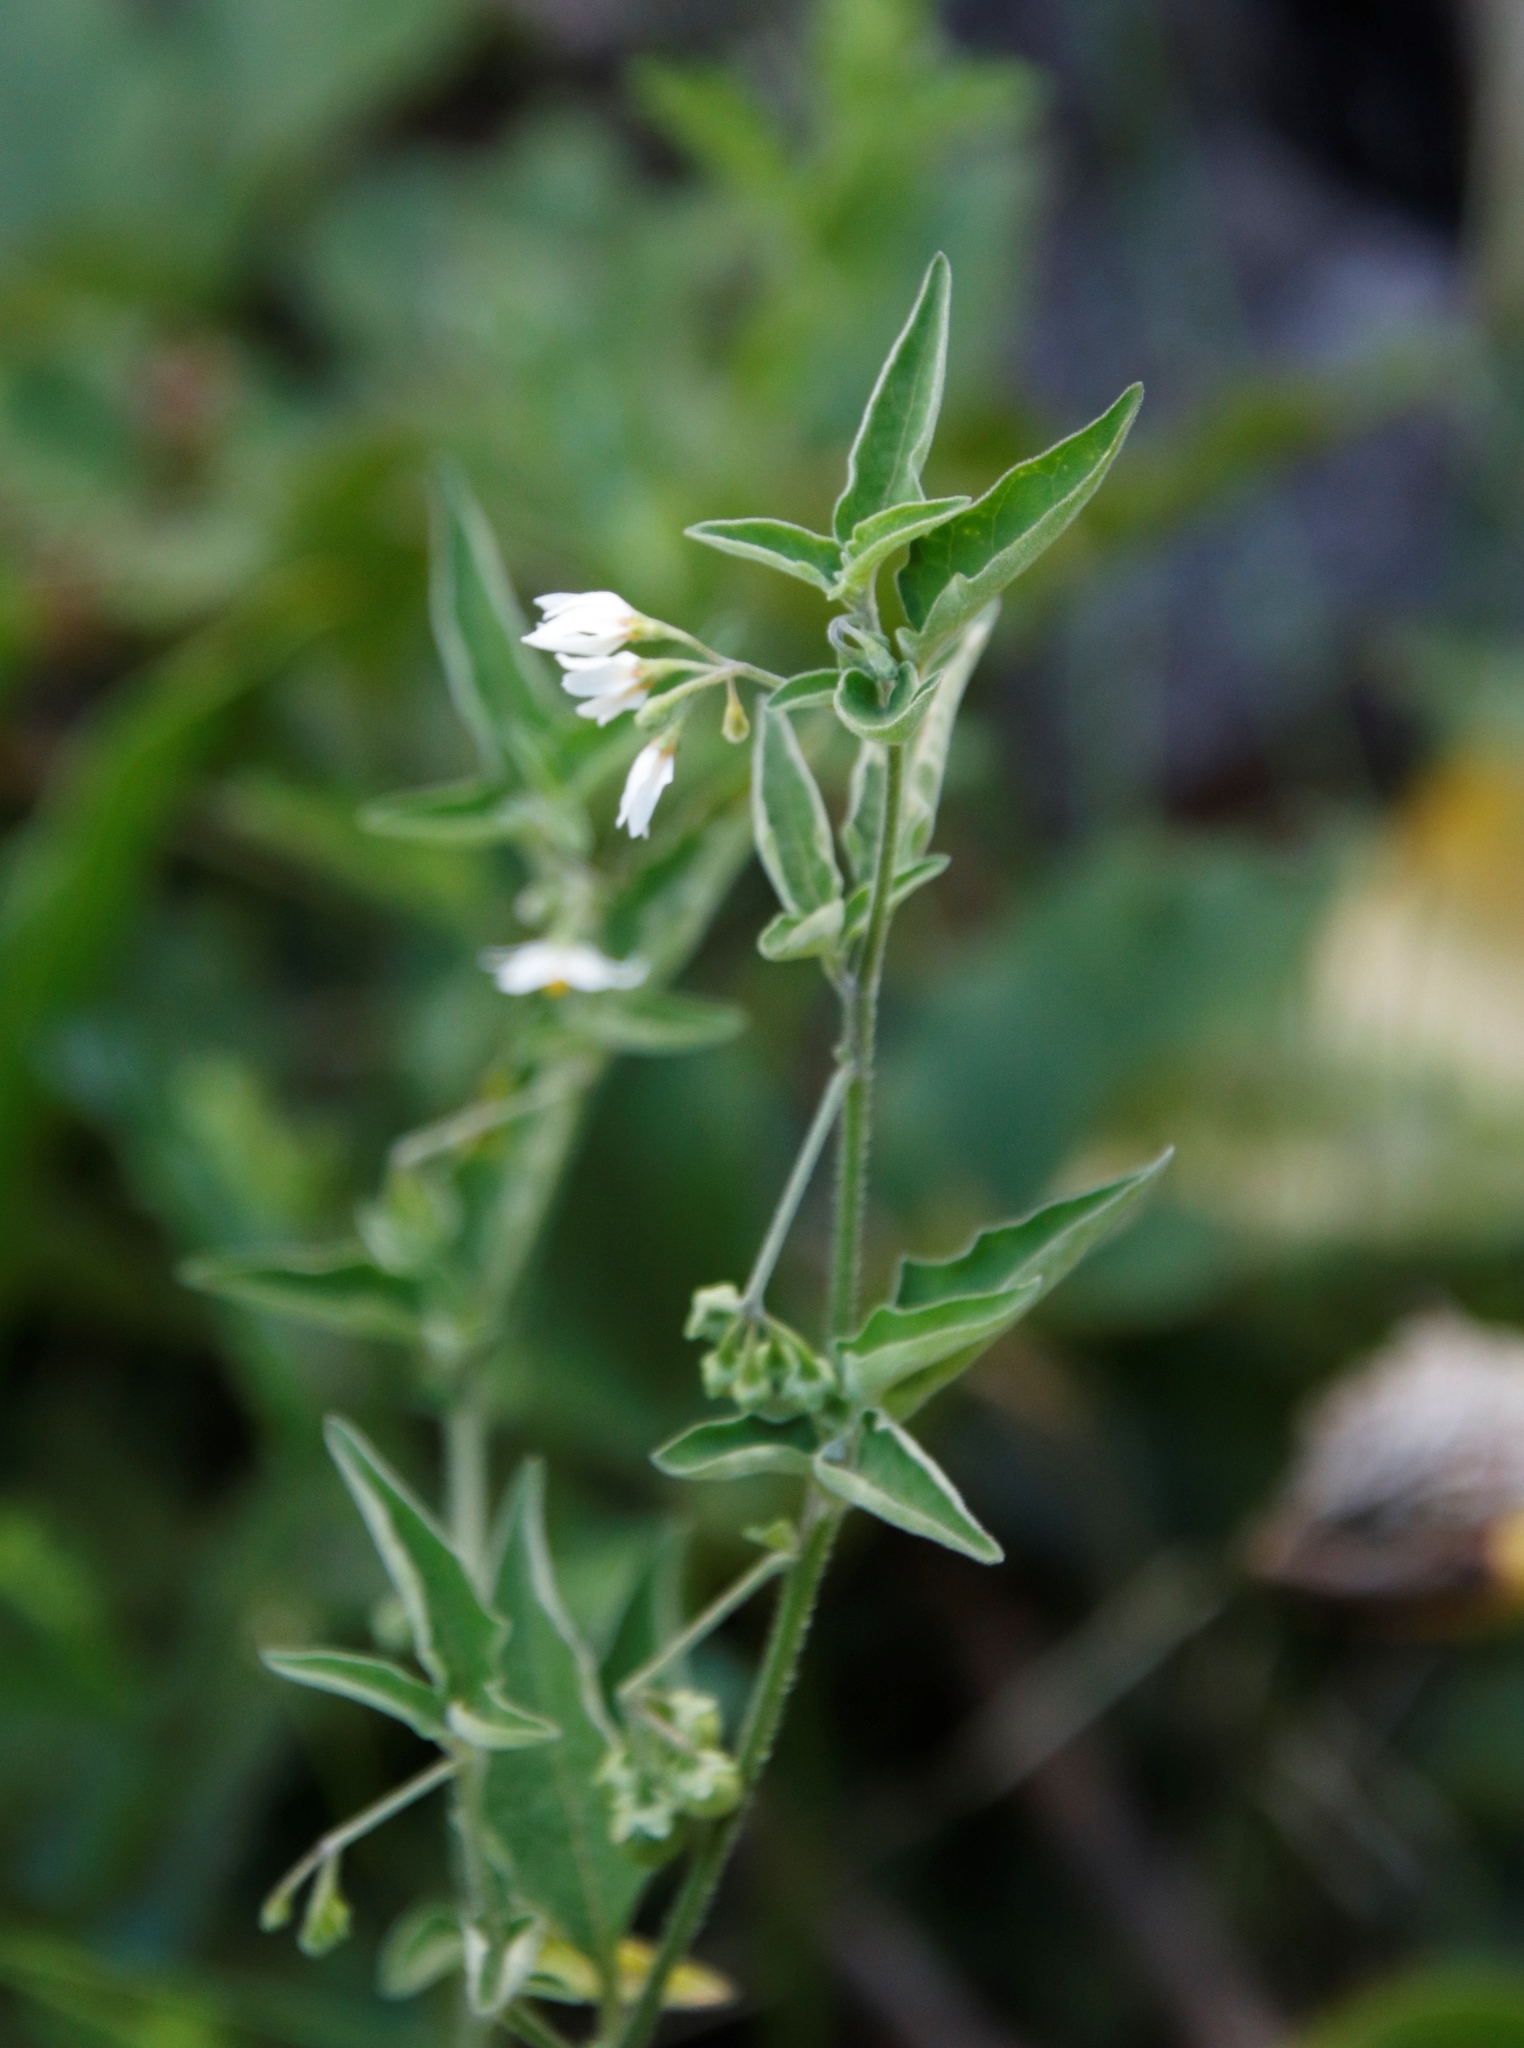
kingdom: Plantae
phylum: Tracheophyta
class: Magnoliopsida
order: Solanales
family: Solanaceae
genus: Solanum
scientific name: Solanum chenopodioides
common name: Tall nightshade
